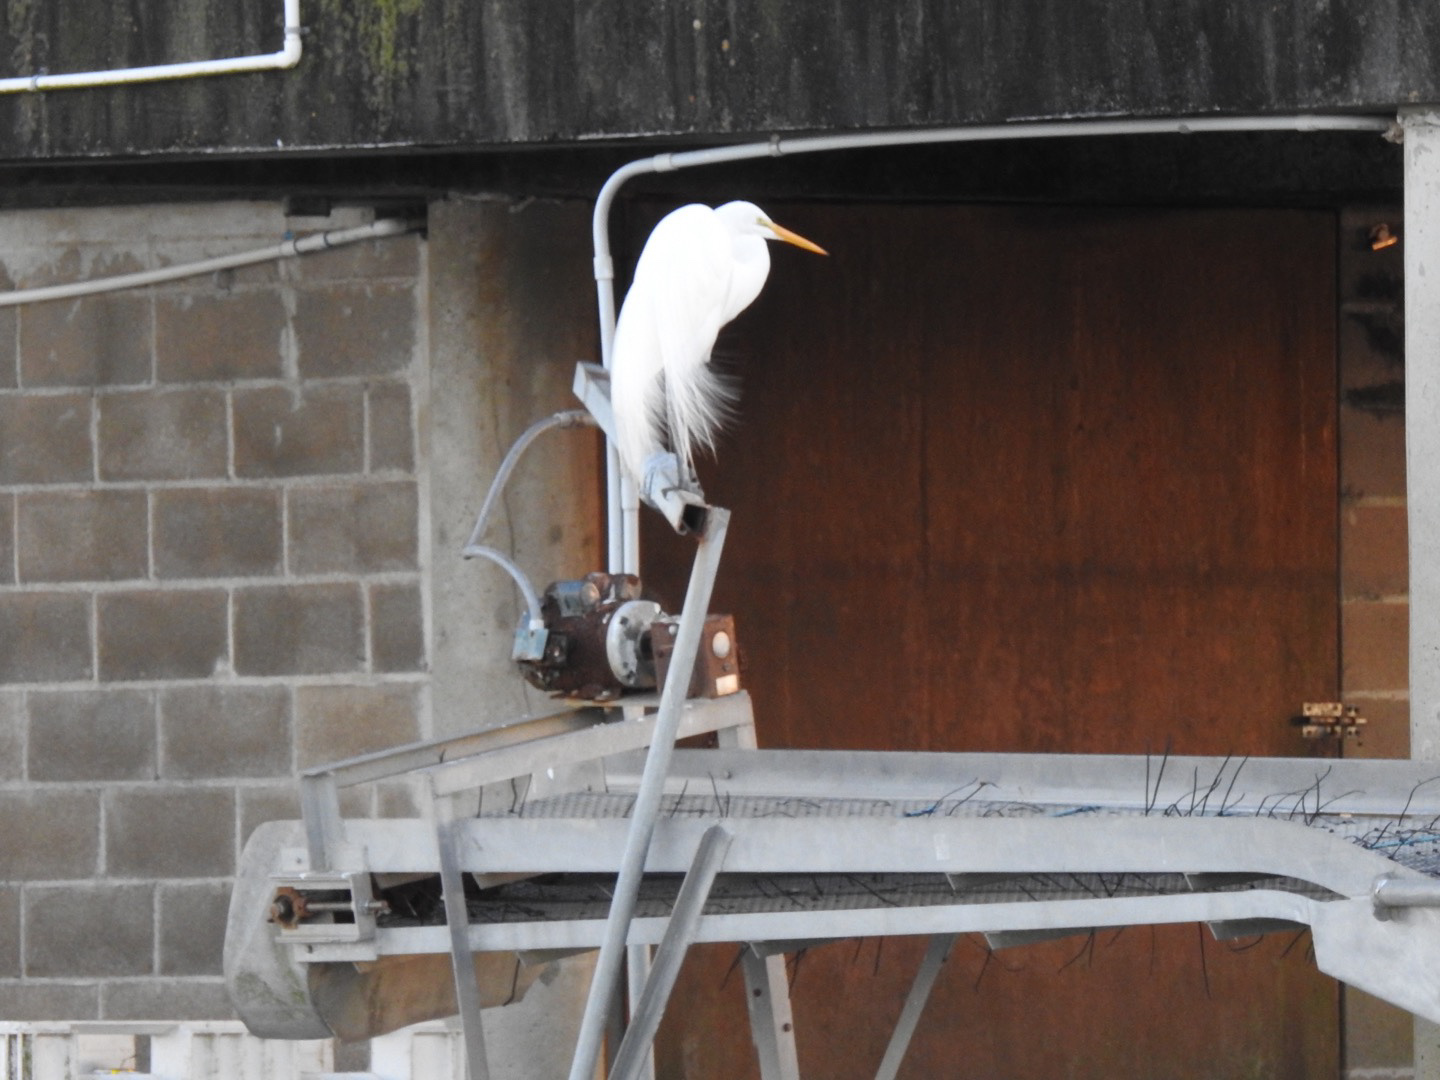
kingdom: Animalia
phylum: Chordata
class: Aves
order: Pelecaniformes
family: Ardeidae
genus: Ardea
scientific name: Ardea alba
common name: Great egret
